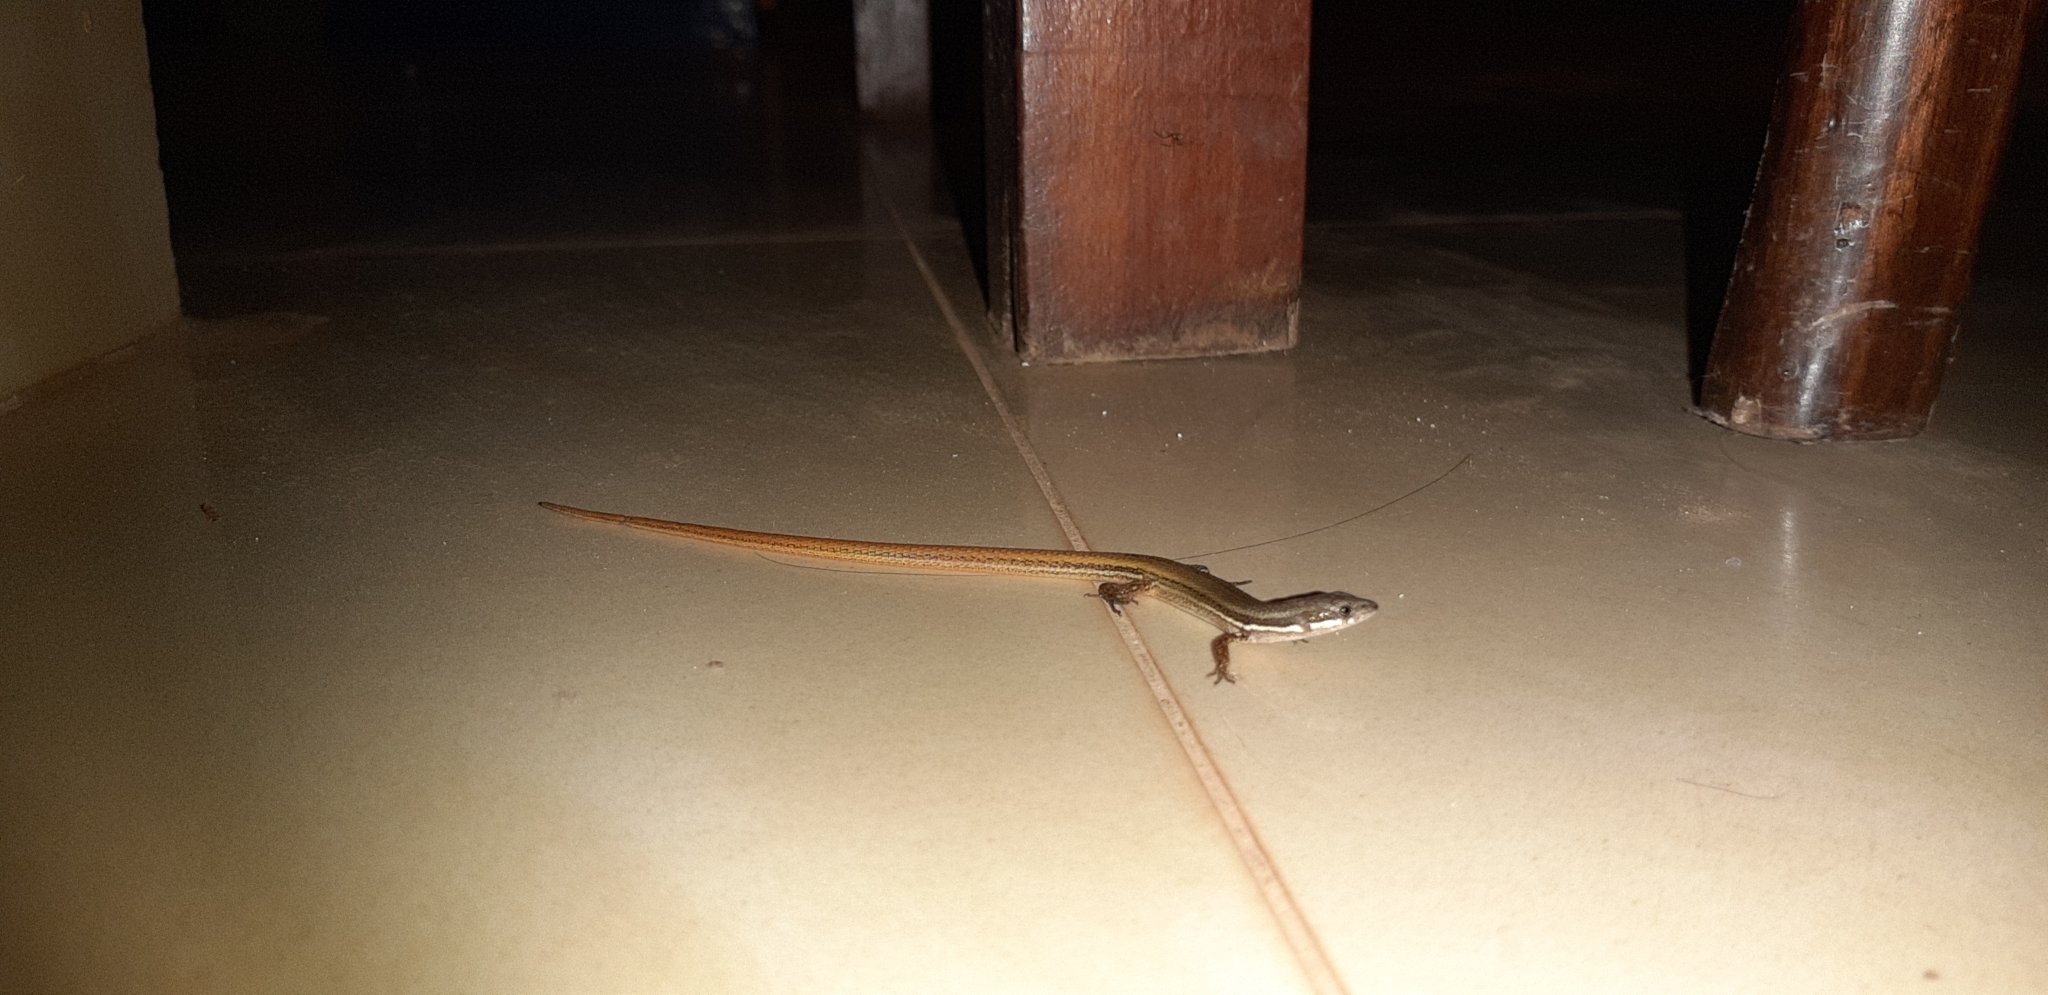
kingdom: Animalia
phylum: Chordata
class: Squamata
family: Gymnophthalmidae
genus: Cercosaura
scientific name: Cercosaura argulus
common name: White-lipped cercosaura
